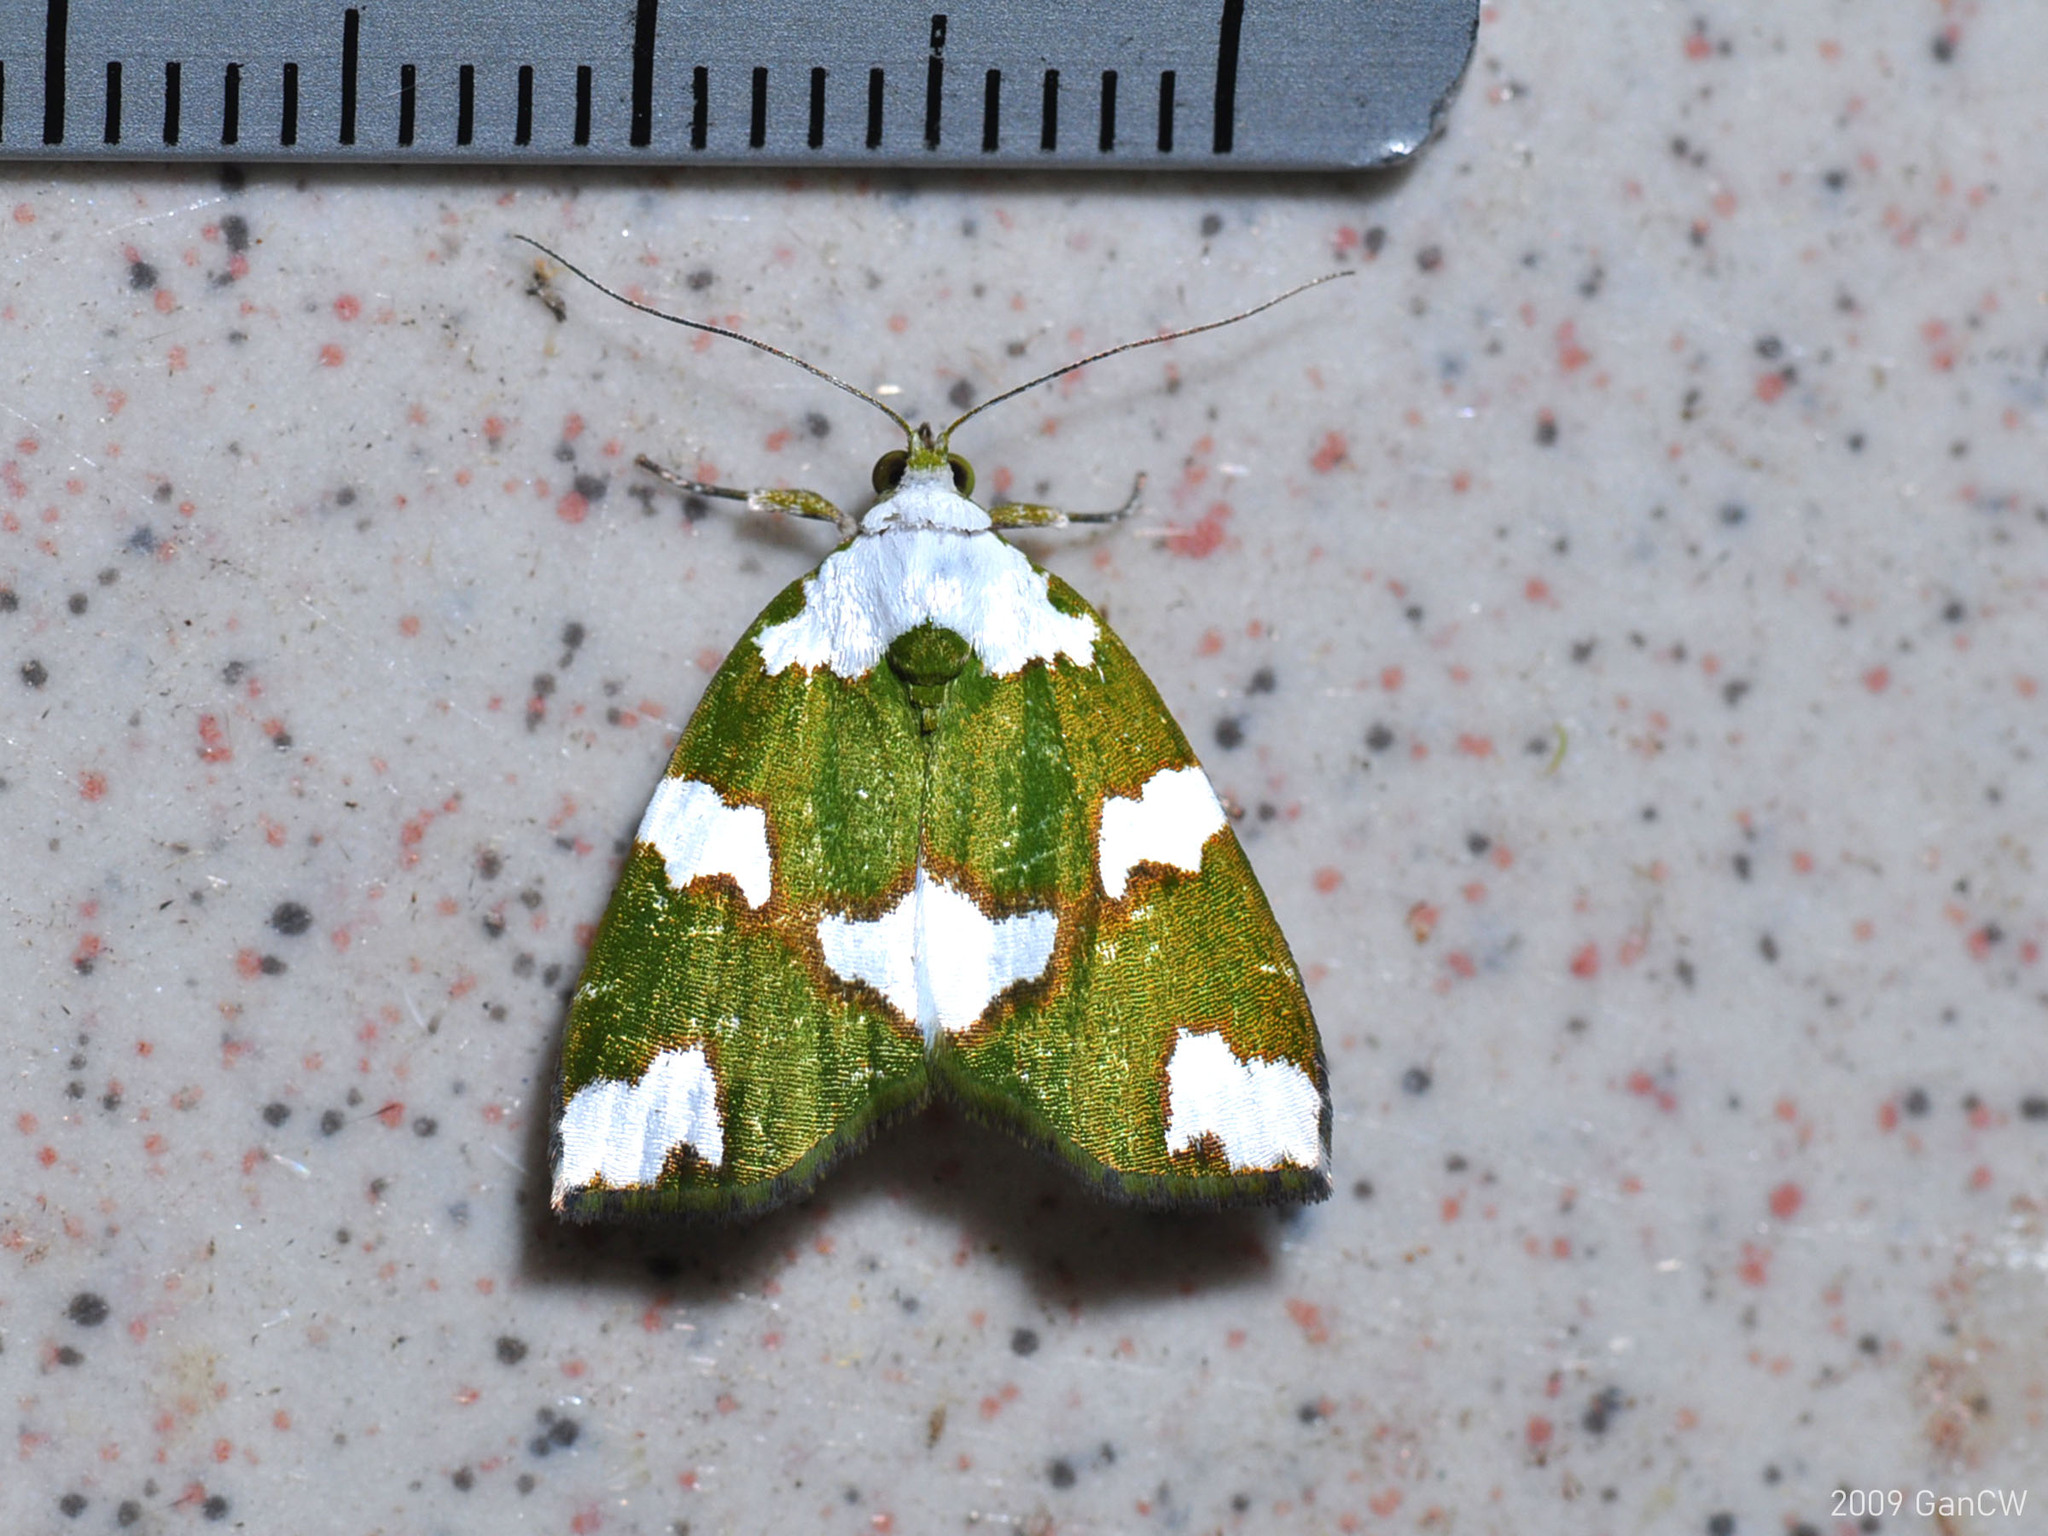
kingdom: Animalia
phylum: Arthropoda
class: Insecta
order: Lepidoptera
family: Nolidae
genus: Ariolica
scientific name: Ariolica peresa
